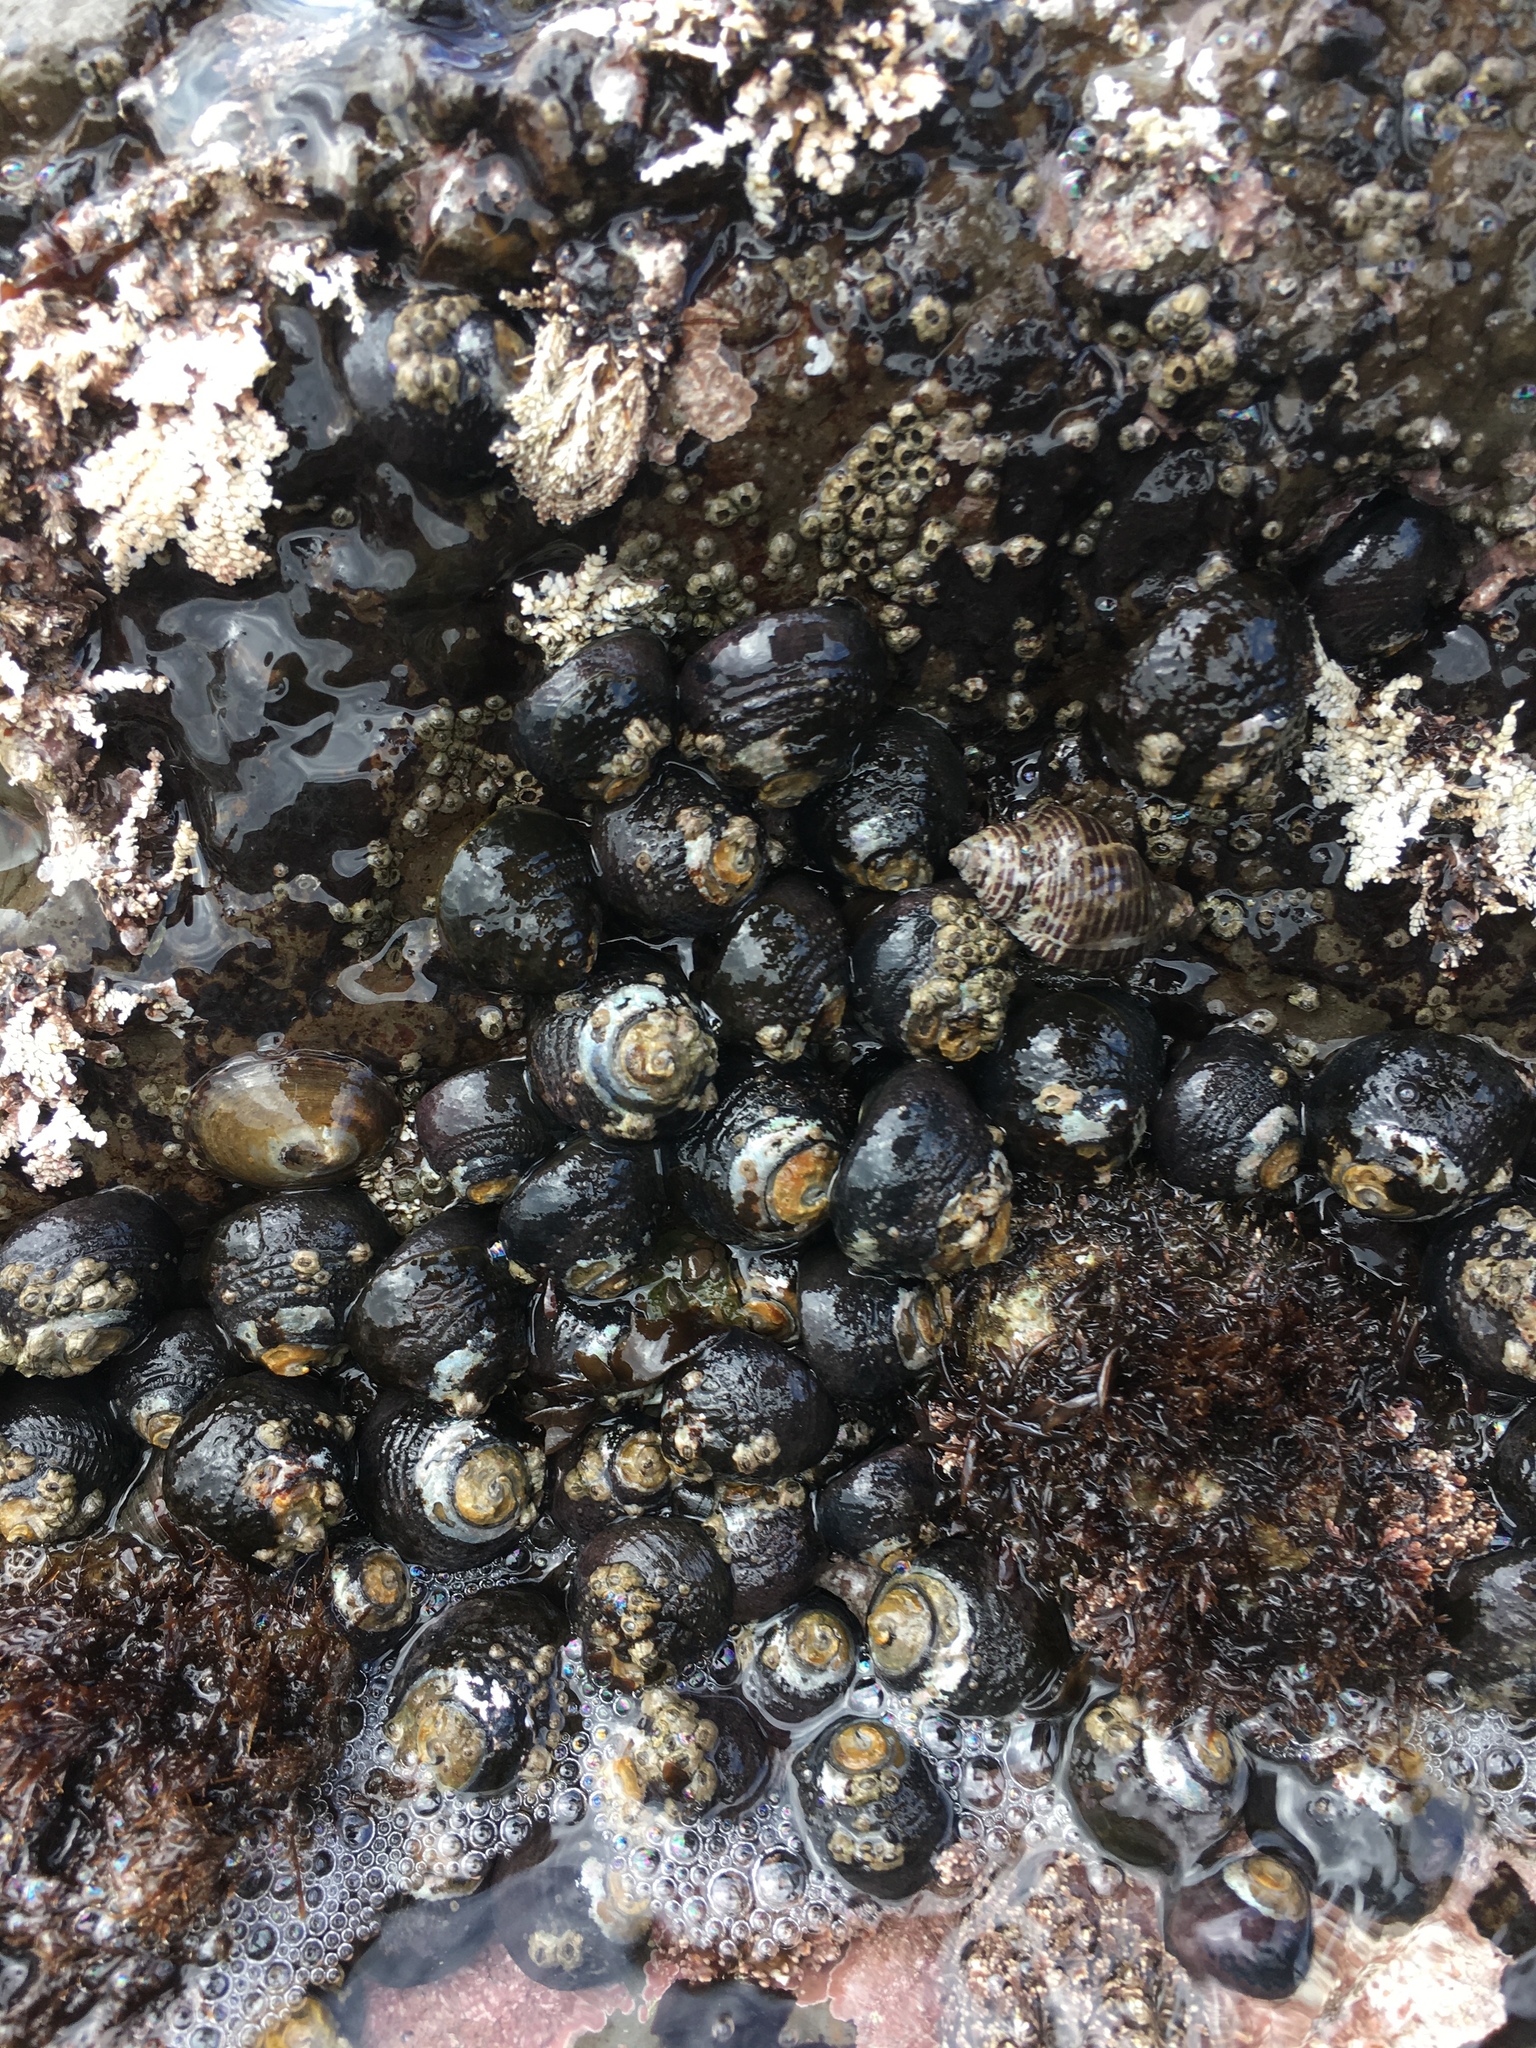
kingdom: Animalia
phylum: Mollusca
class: Gastropoda
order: Trochida
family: Tegulidae
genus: Tegula
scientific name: Tegula funebralis
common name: Black tegula
